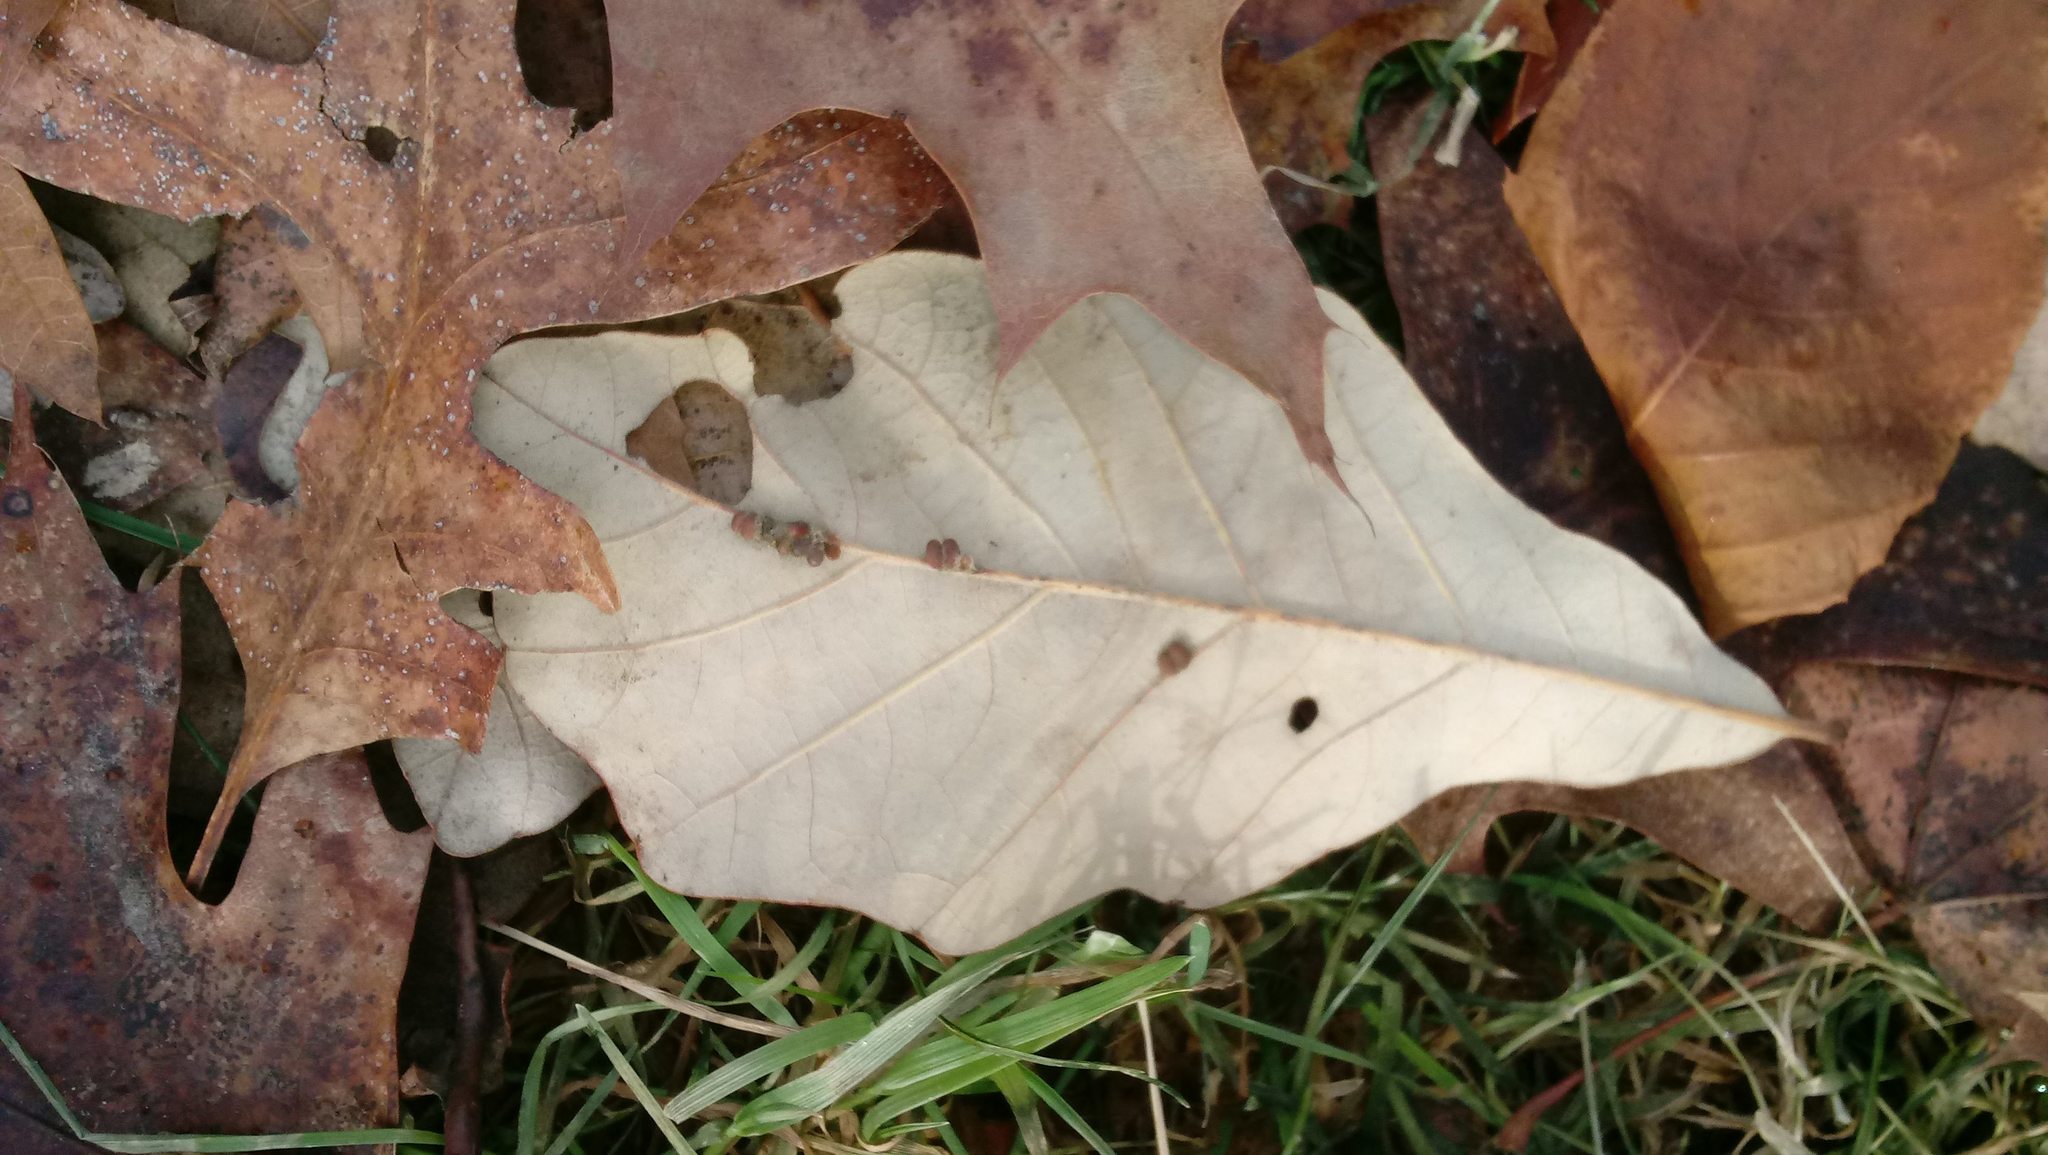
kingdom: Animalia
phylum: Arthropoda
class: Insecta
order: Hymenoptera
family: Cynipidae
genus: Andricus
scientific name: Andricus Druon ignotum
